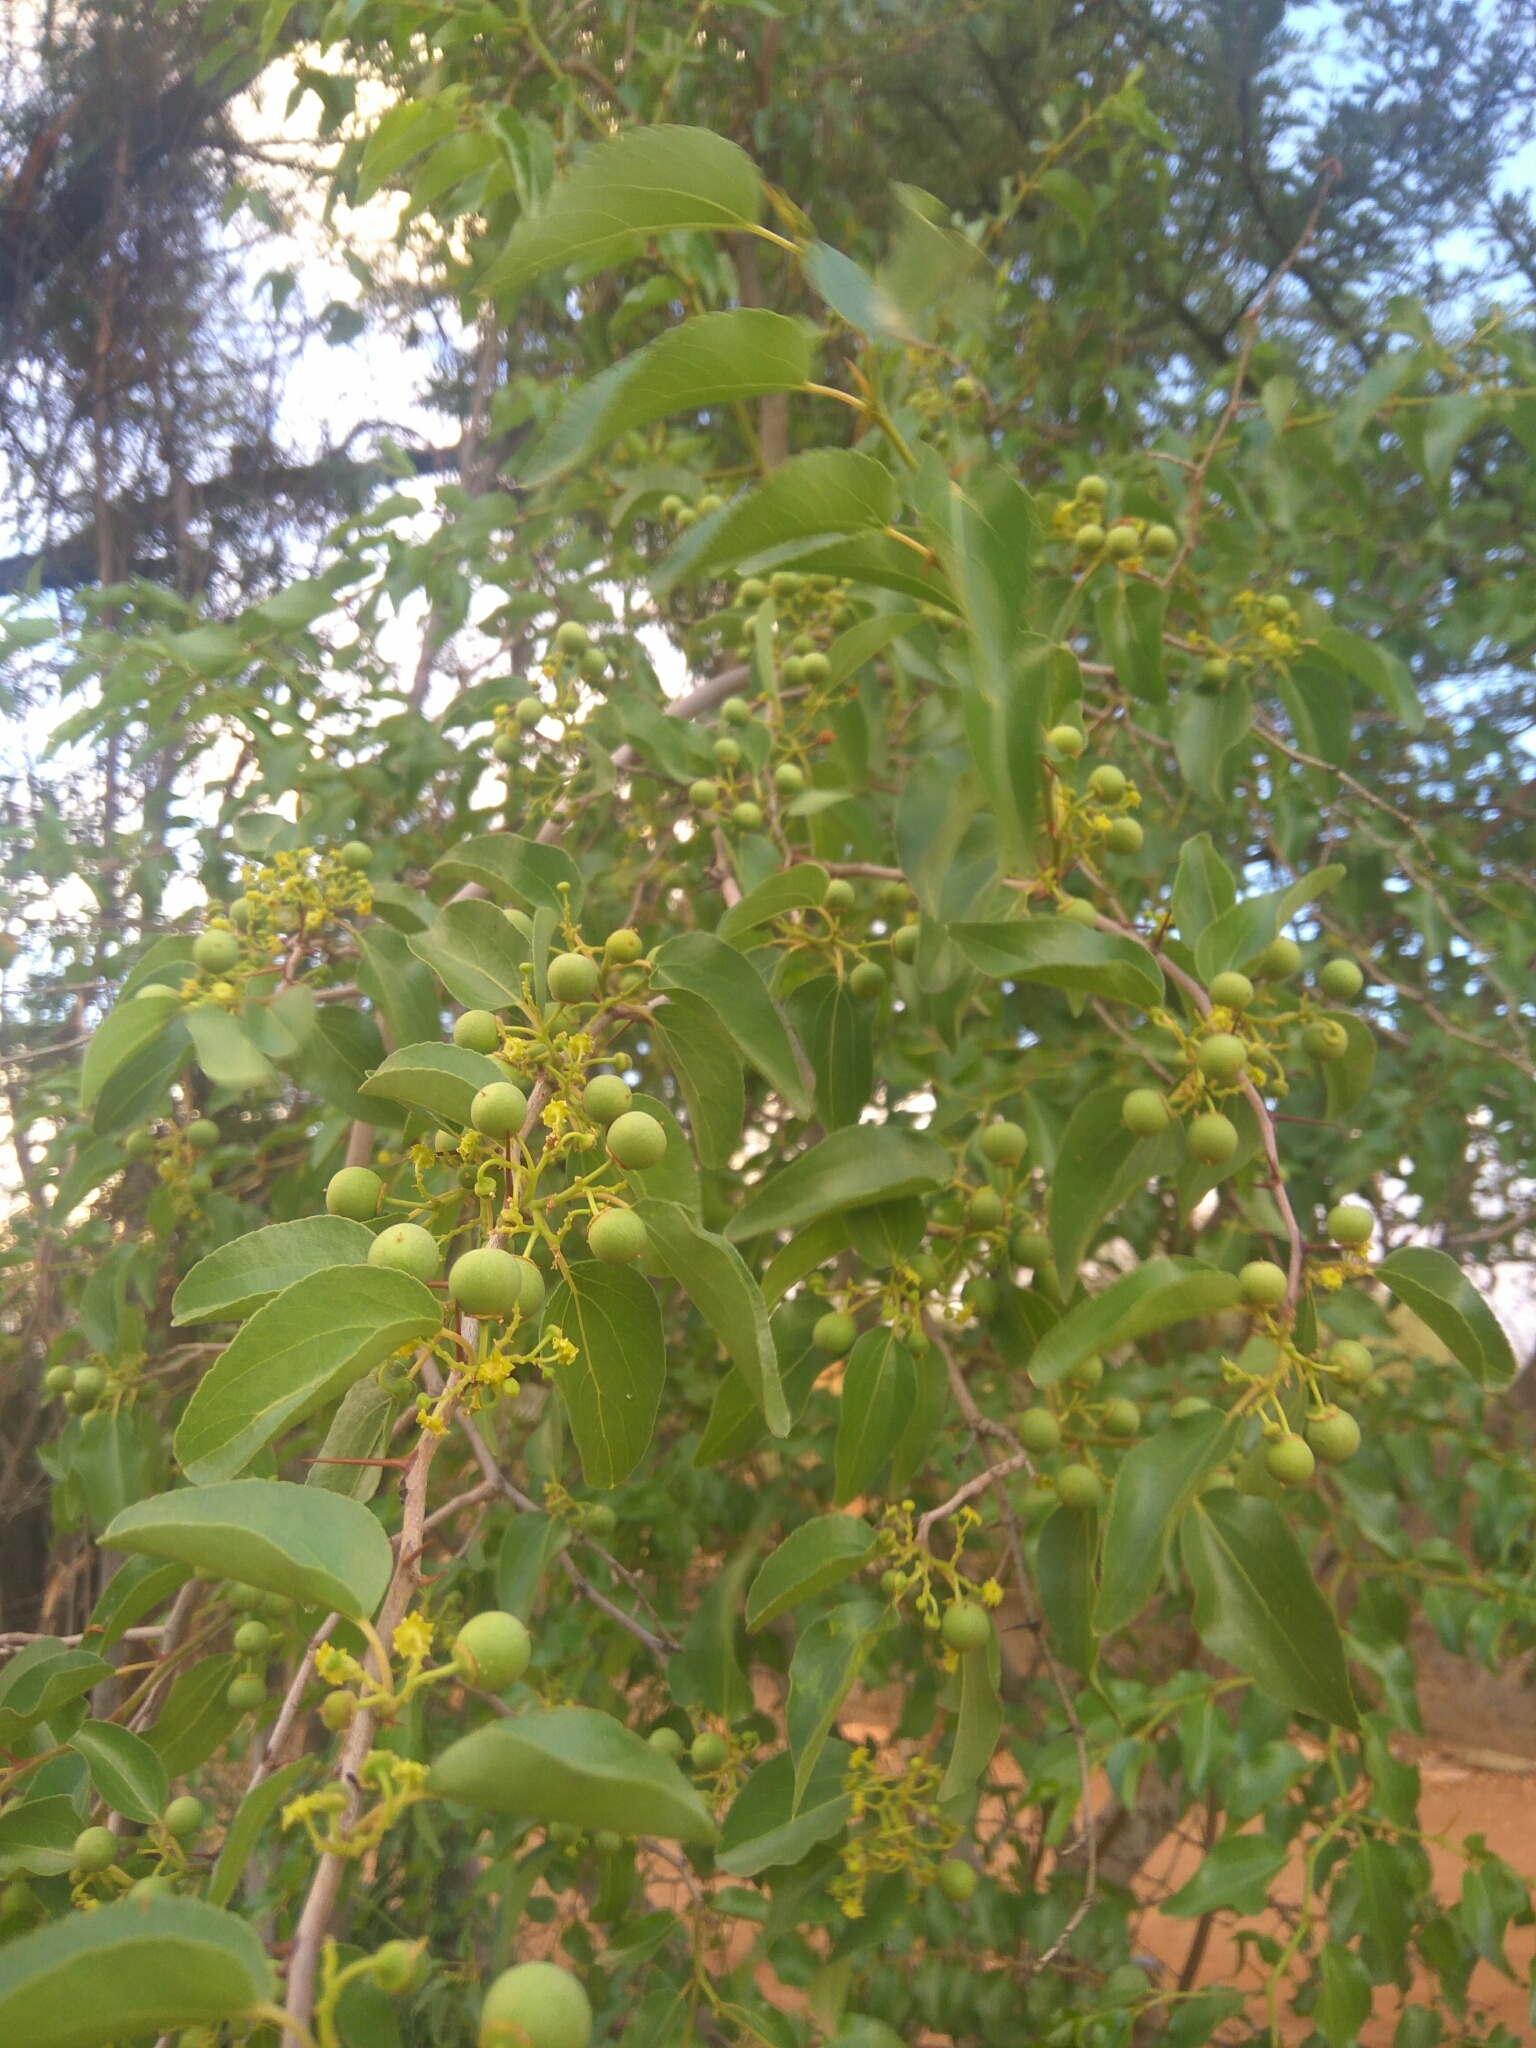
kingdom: Plantae
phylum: Tracheophyta
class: Magnoliopsida
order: Rosales
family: Rhamnaceae
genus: Ziziphus
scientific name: Ziziphus mucronata
